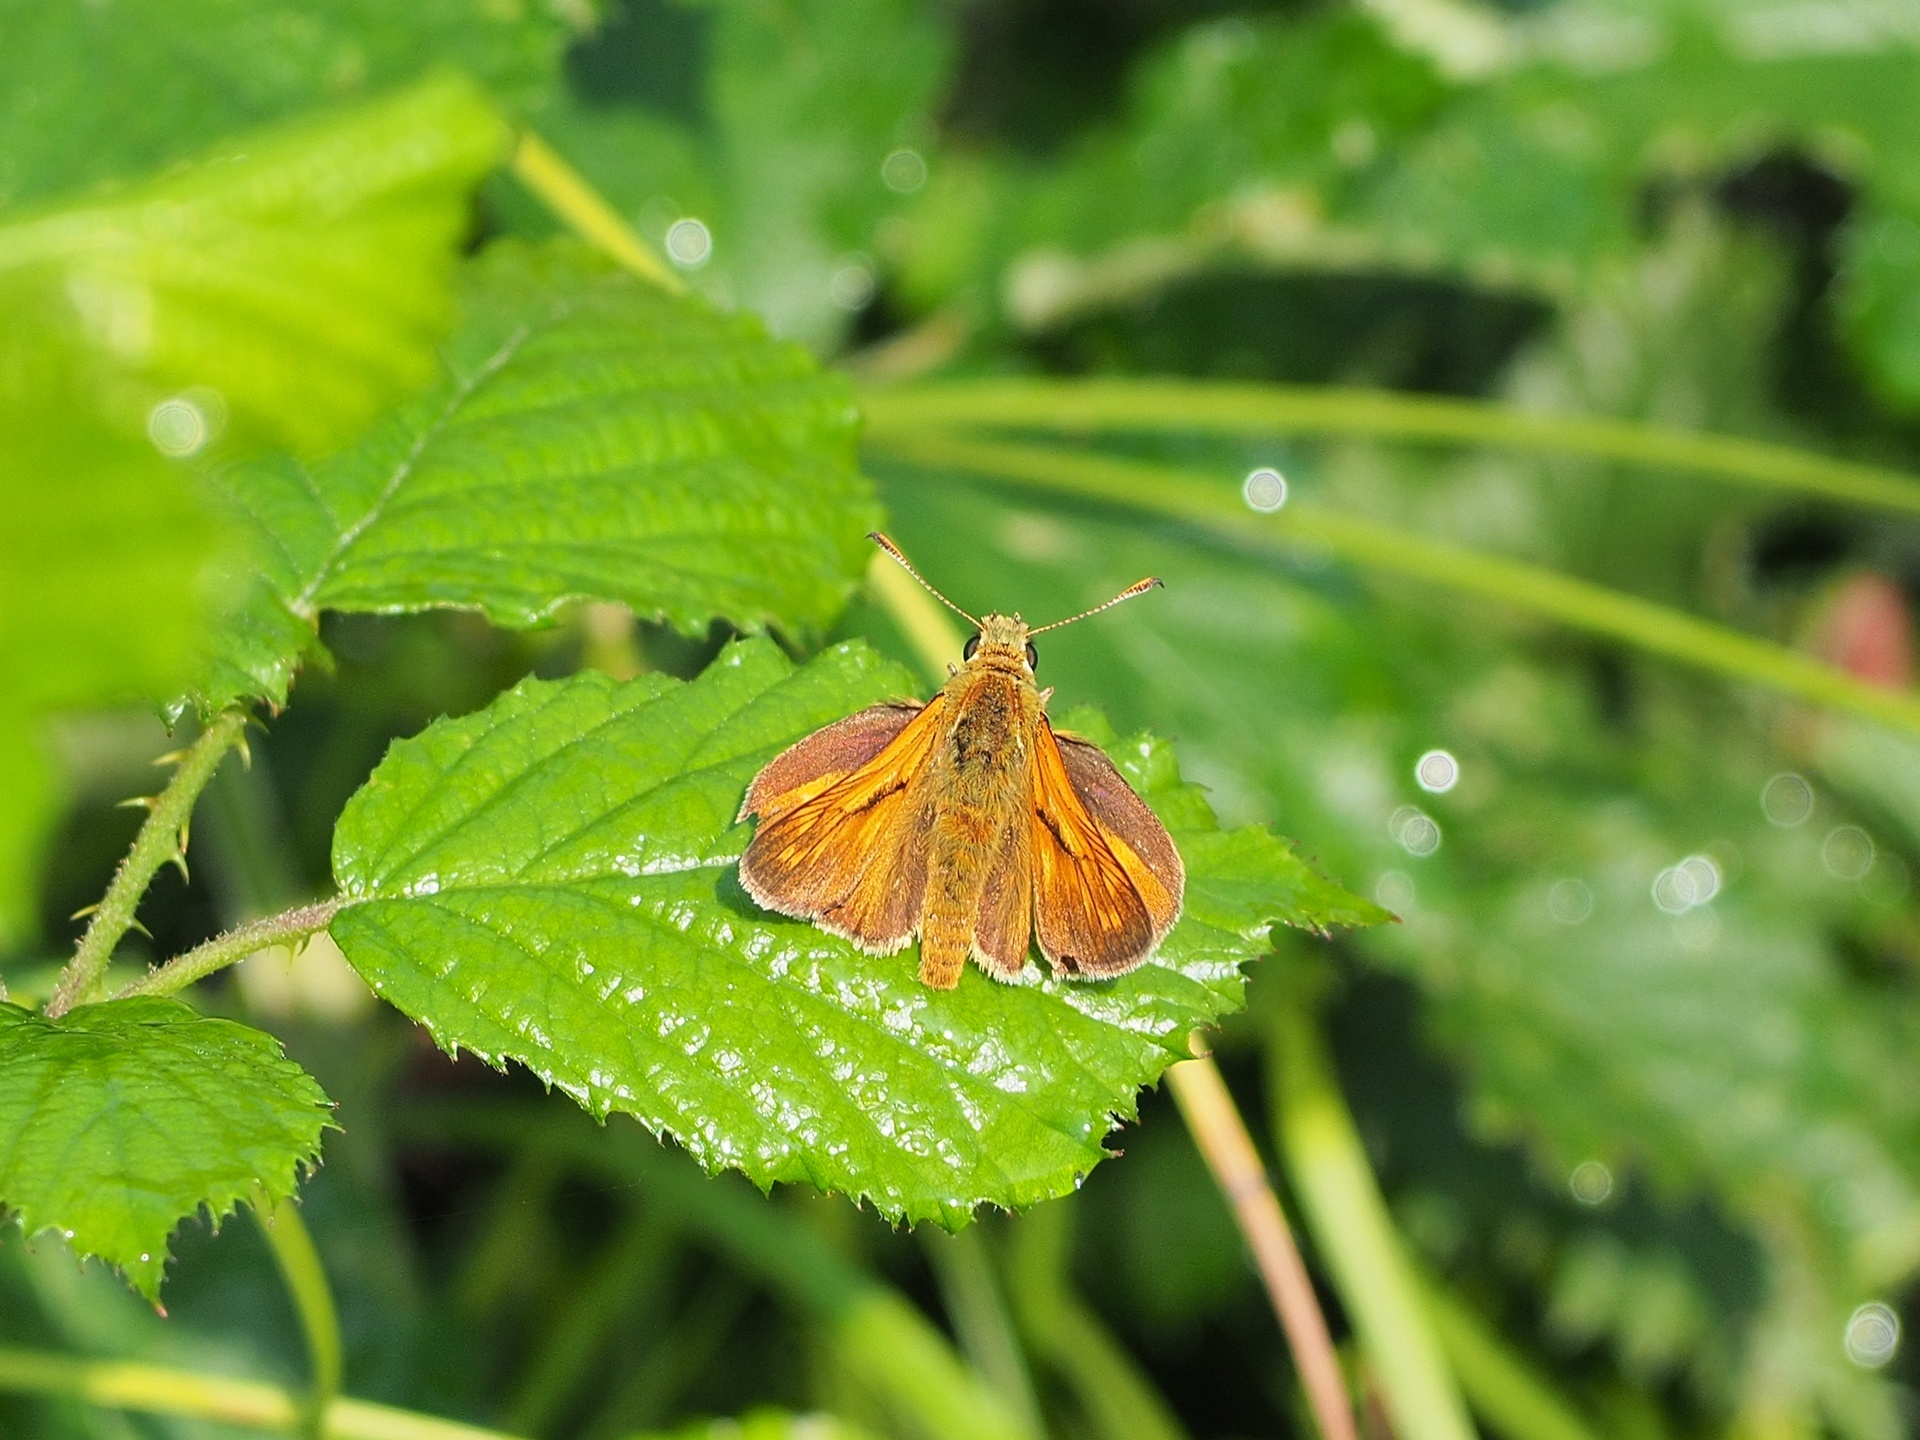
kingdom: Animalia
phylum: Arthropoda
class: Insecta
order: Lepidoptera
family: Hesperiidae
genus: Ochlodes
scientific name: Ochlodes venata
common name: Large skipper
